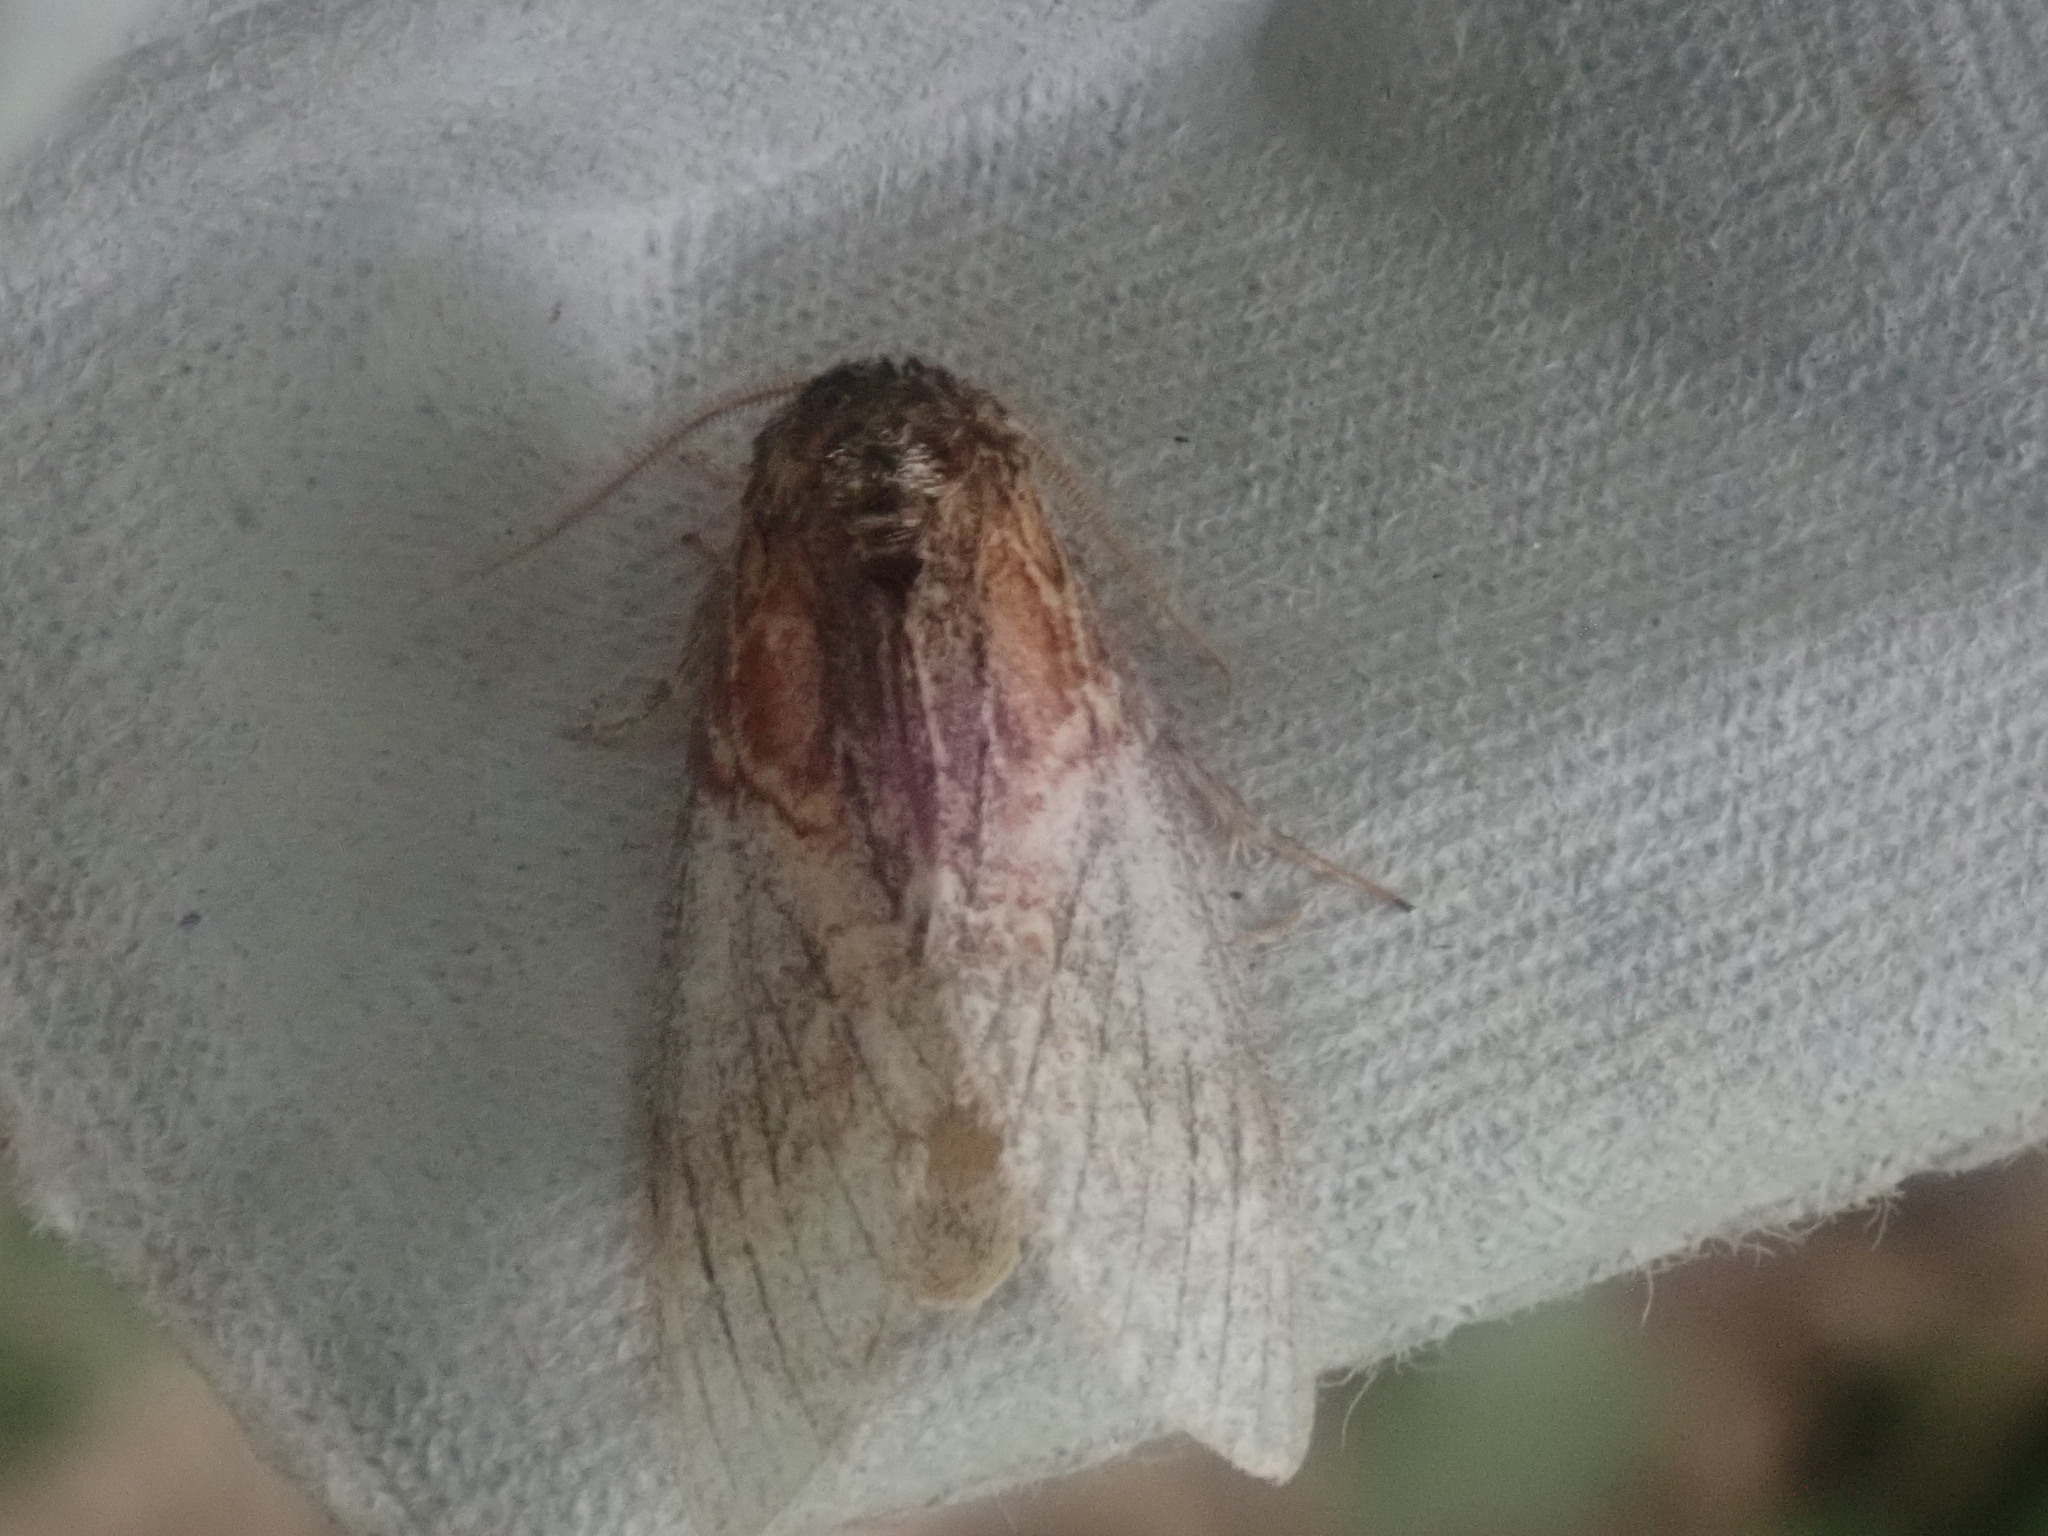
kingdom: Animalia
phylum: Arthropoda
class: Insecta
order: Lepidoptera
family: Notodontidae
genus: Peridea
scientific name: Peridea basitriens
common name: Oval-based prominent
